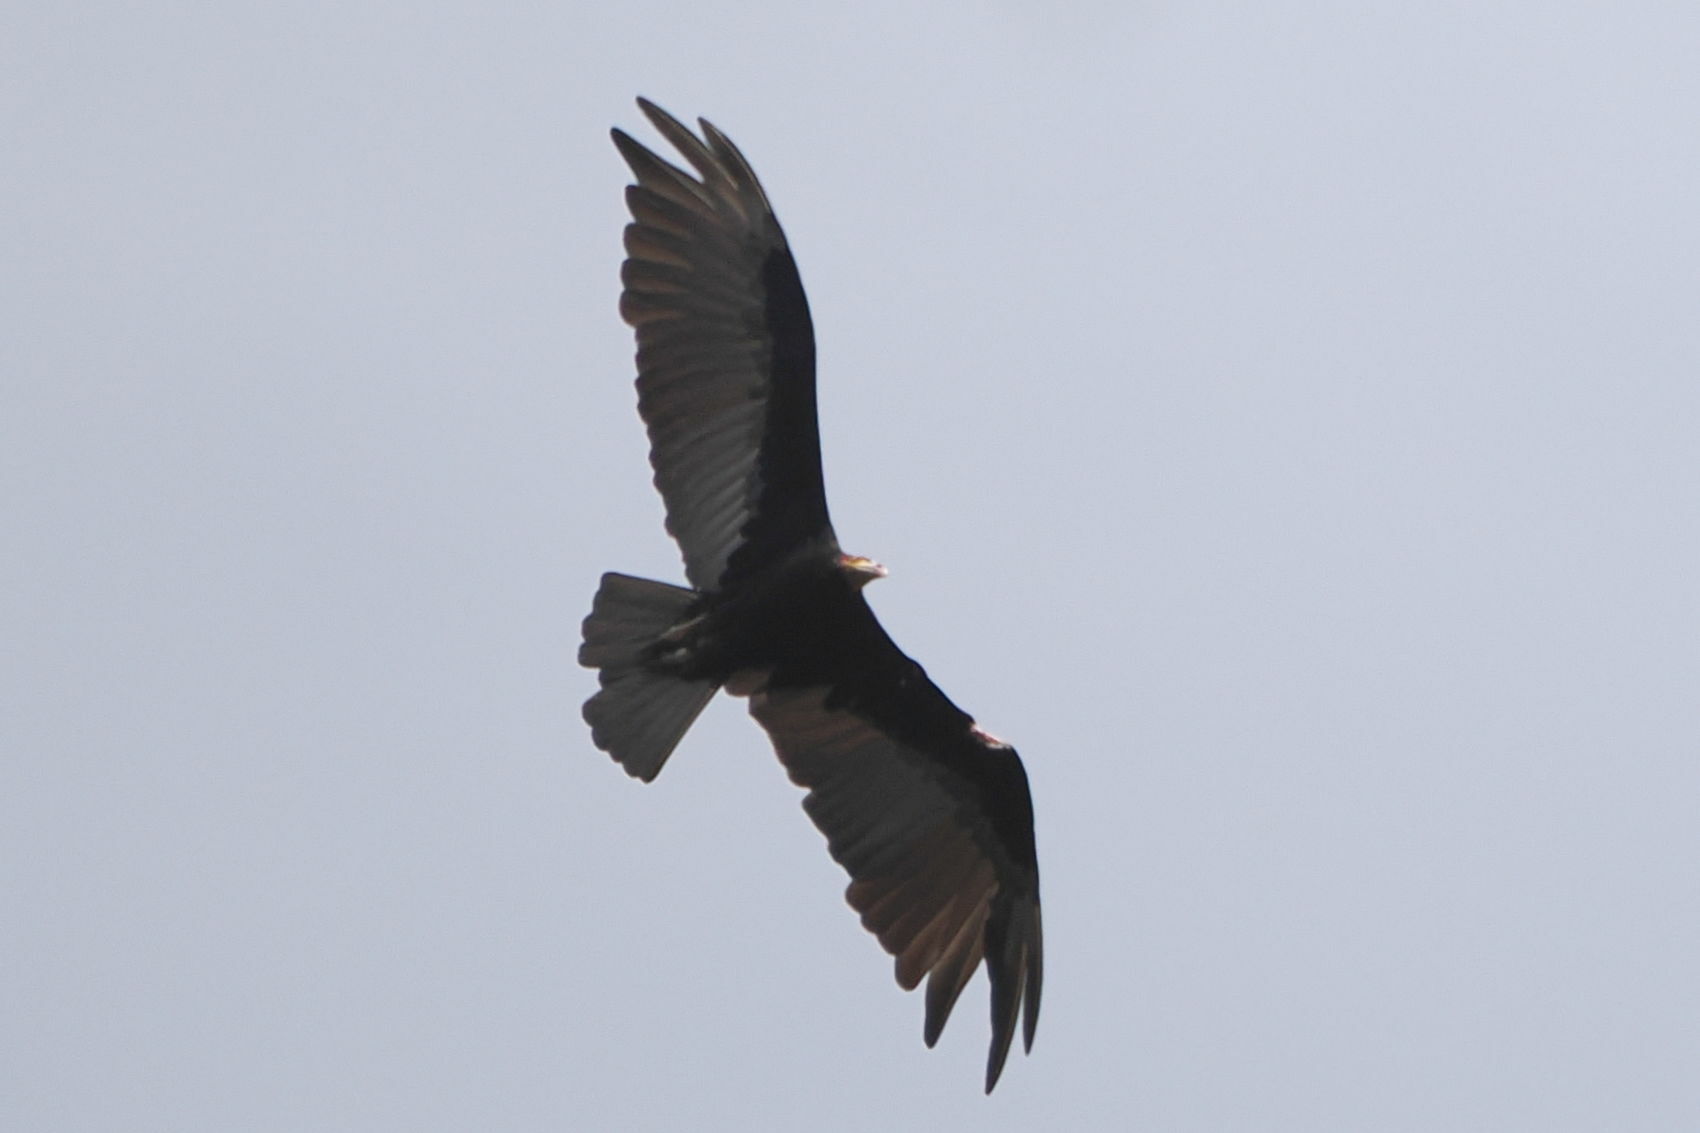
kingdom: Animalia
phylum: Chordata
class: Aves
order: Accipitriformes
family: Cathartidae
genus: Cathartes
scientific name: Cathartes burrovianus
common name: Lesser yellow-headed vulture
